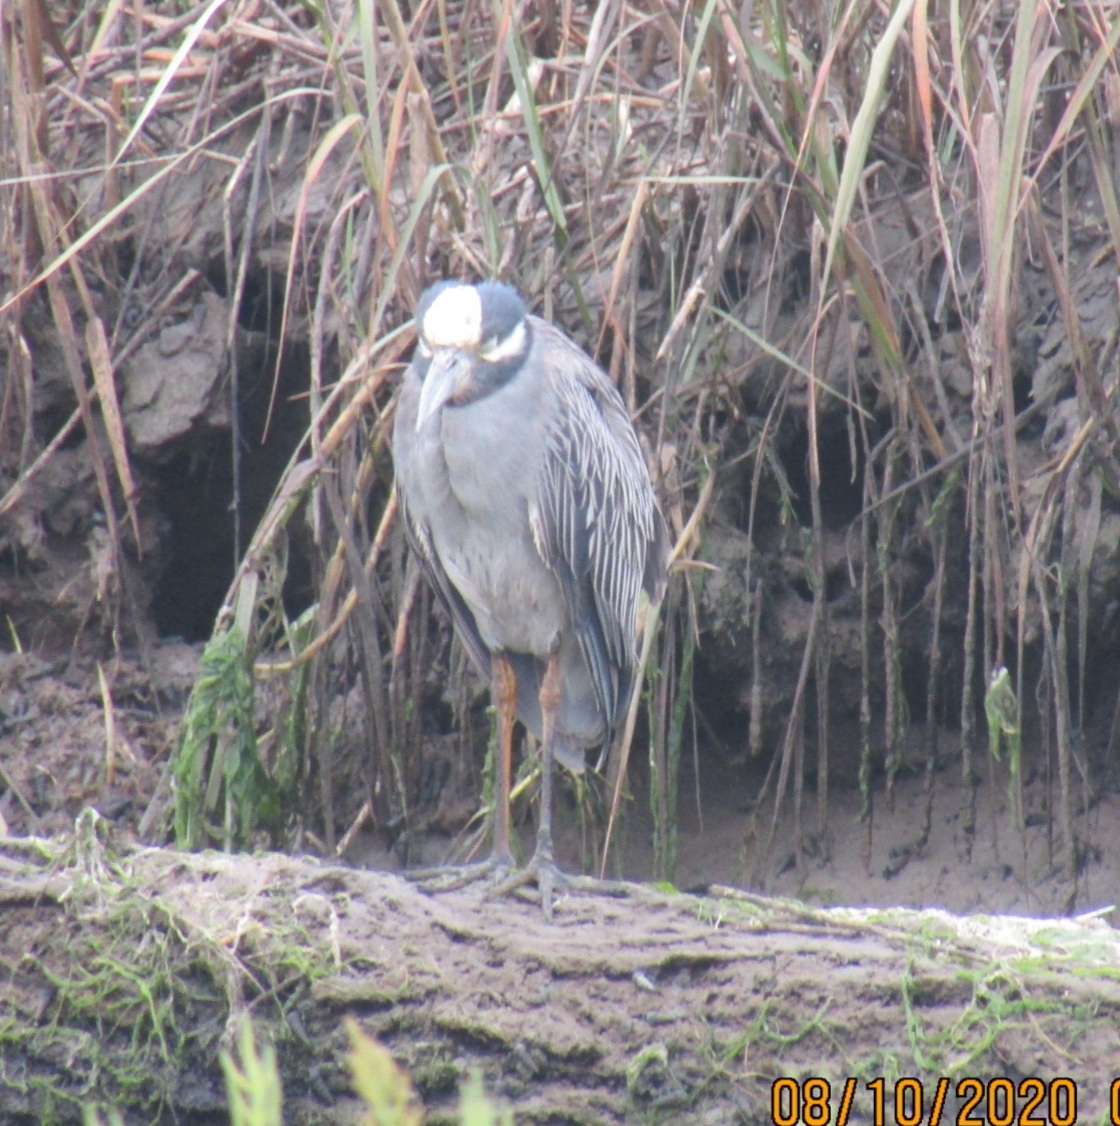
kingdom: Animalia
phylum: Chordata
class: Aves
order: Pelecaniformes
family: Ardeidae
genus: Nyctanassa
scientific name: Nyctanassa violacea
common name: Yellow-crowned night heron
